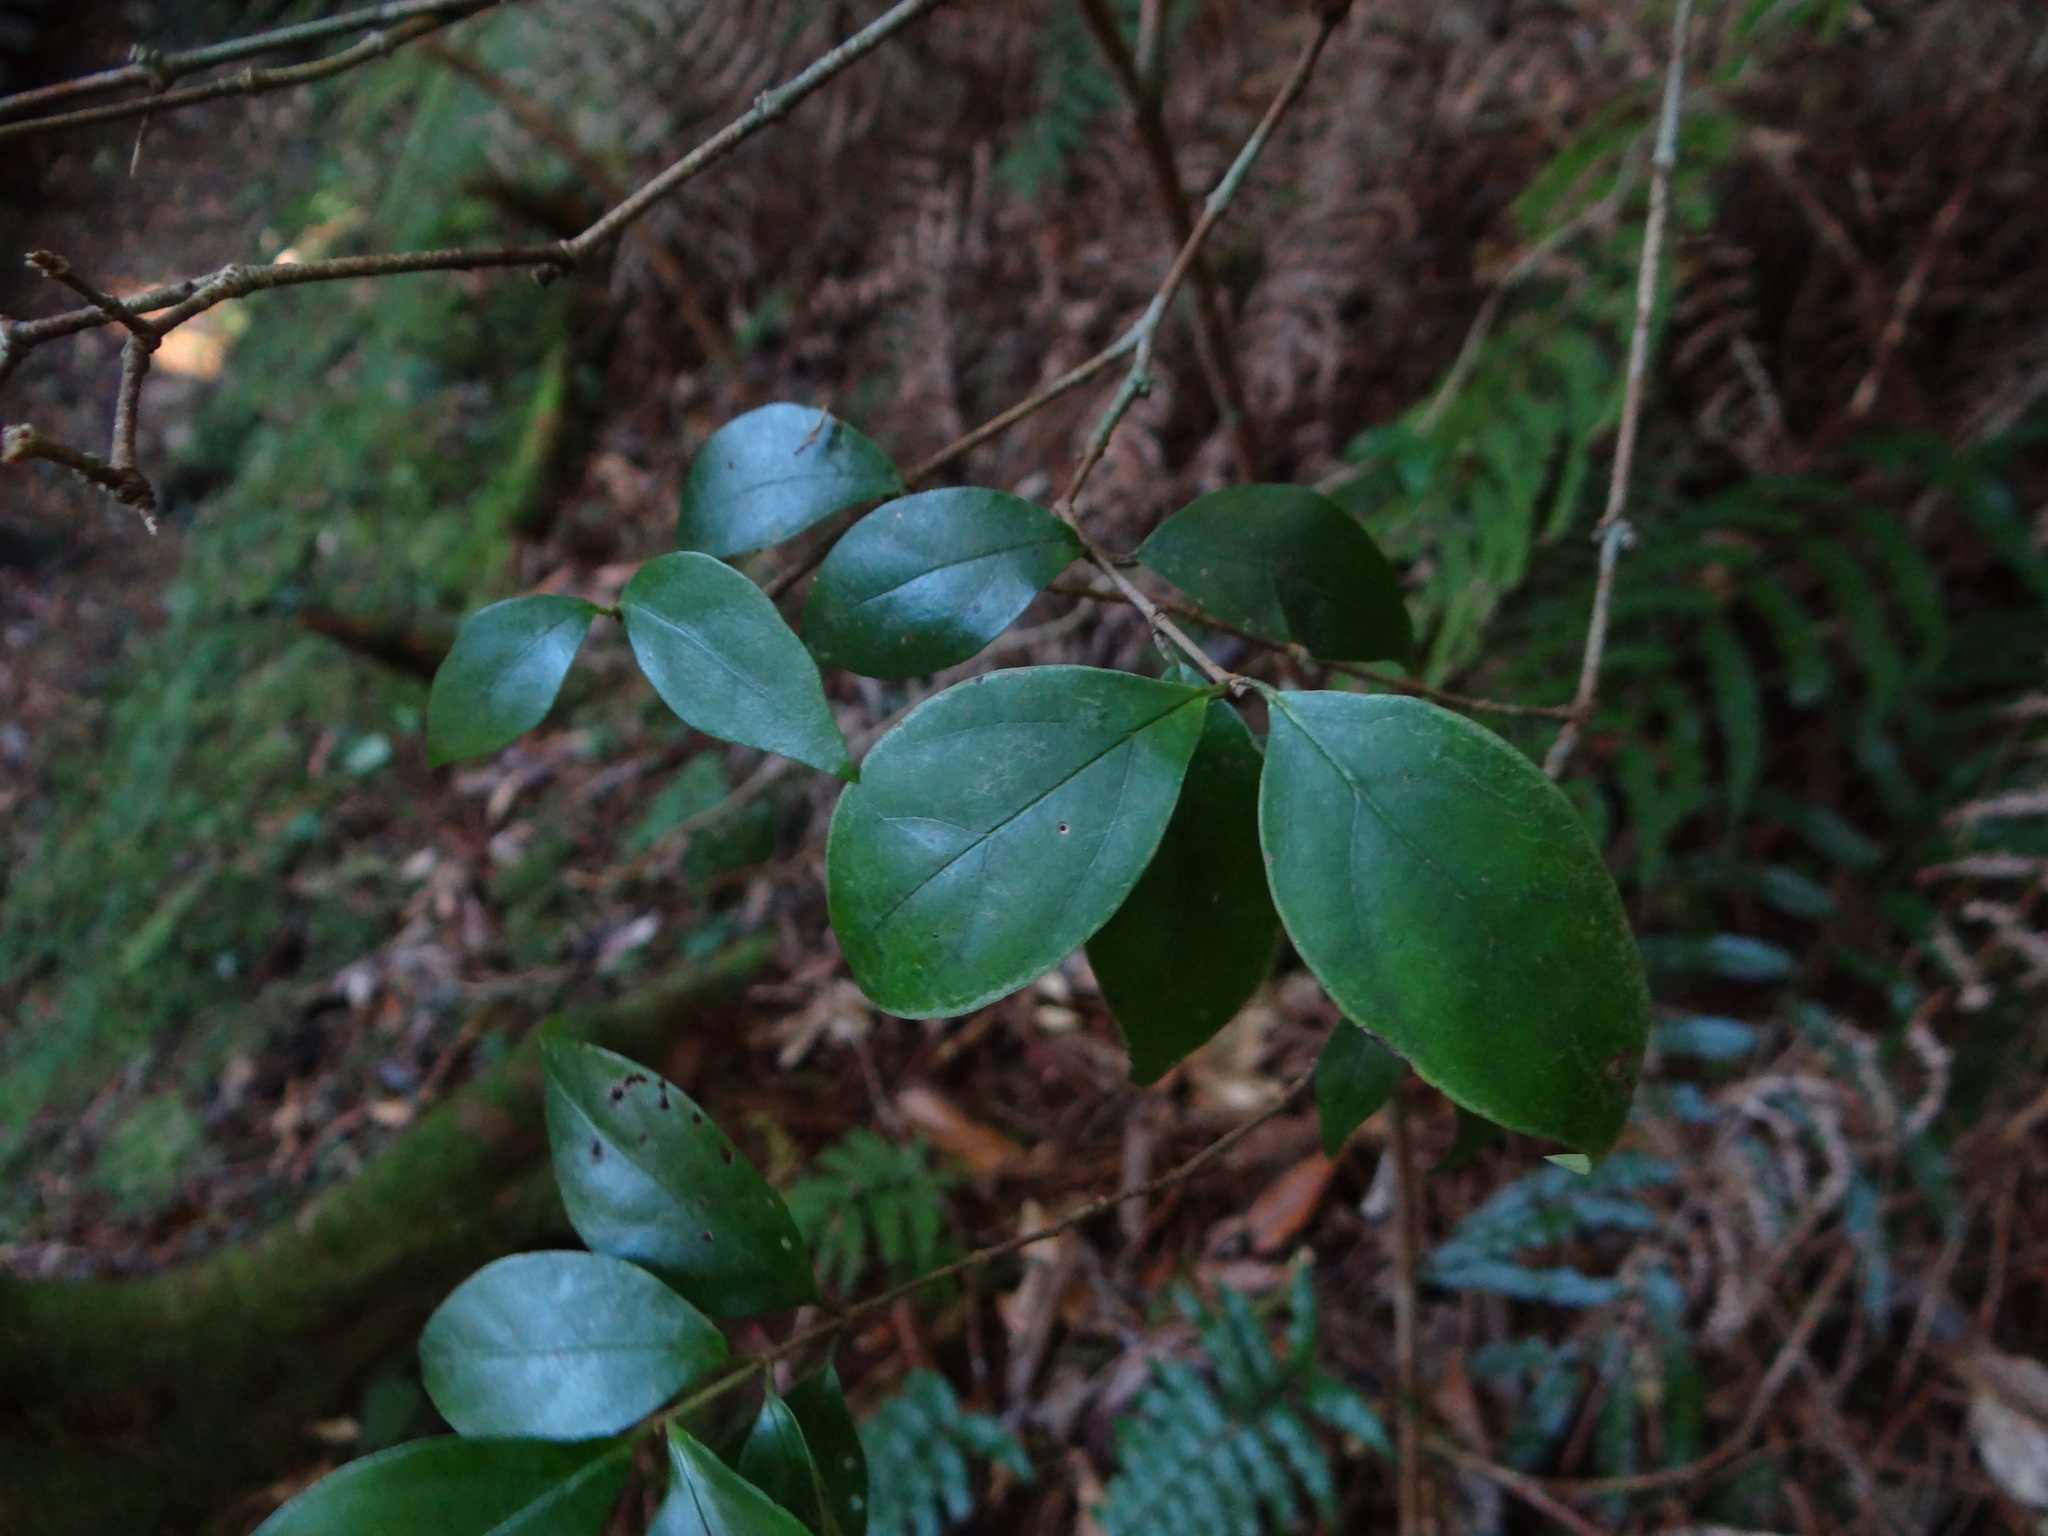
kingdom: Plantae
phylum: Tracheophyta
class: Magnoliopsida
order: Dipsacales
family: Viburnaceae
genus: Viburnum
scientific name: Viburnum integrifolium
